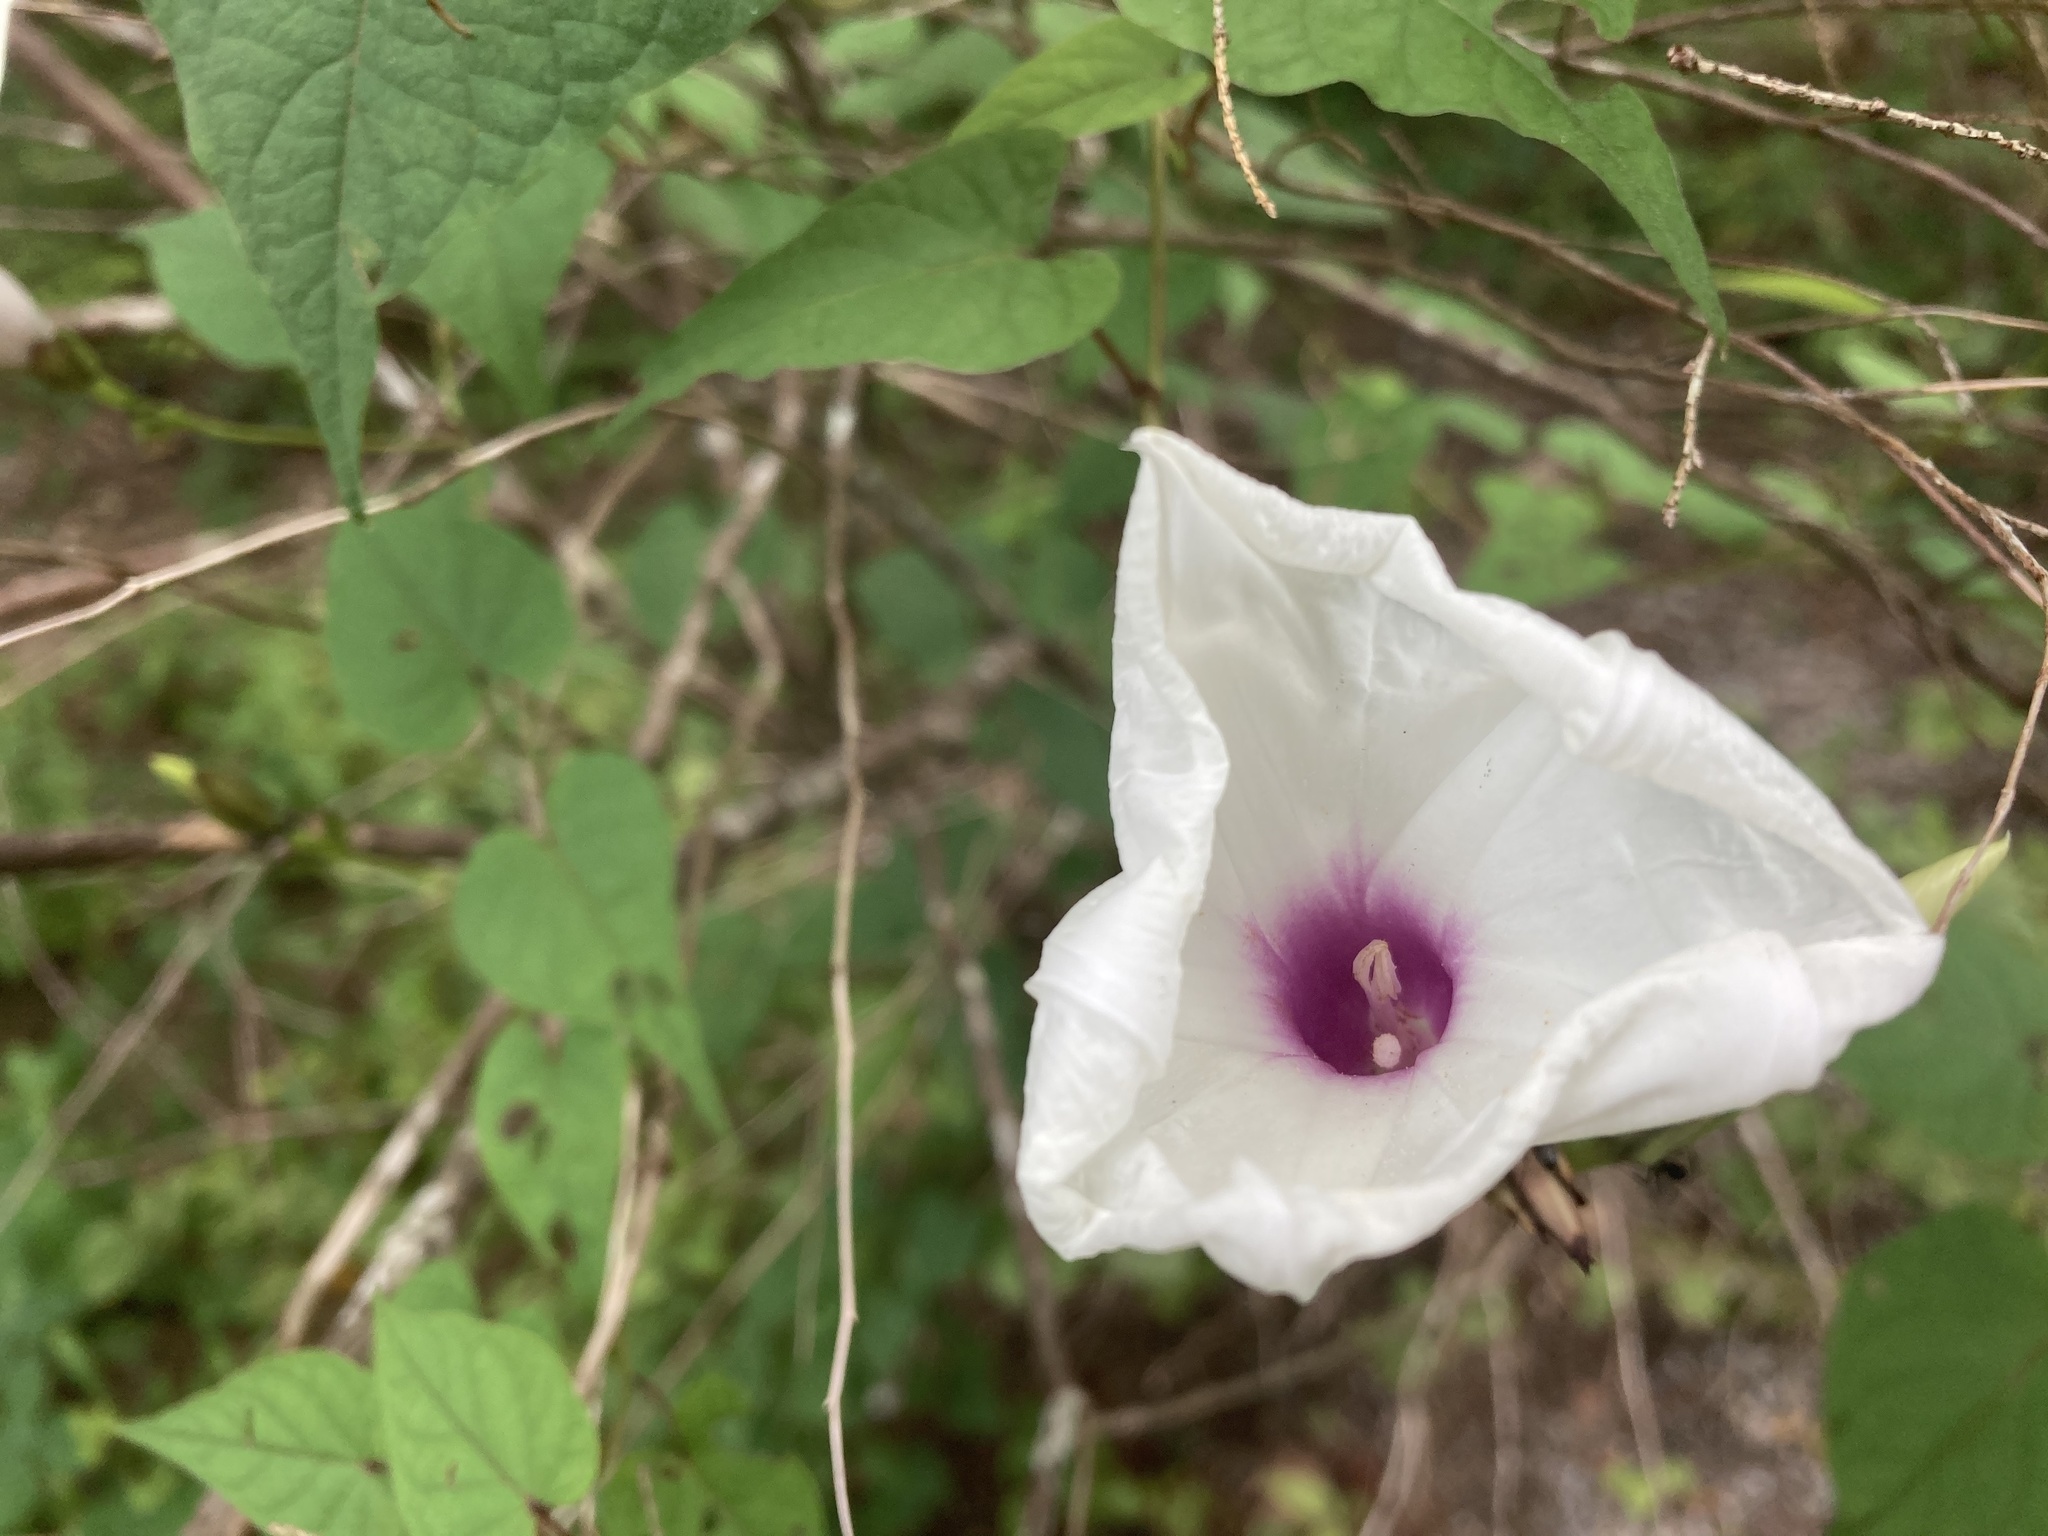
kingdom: Plantae
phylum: Tracheophyta
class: Magnoliopsida
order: Solanales
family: Convolvulaceae
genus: Ipomoea
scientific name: Ipomoea pandurata
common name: Man-of-the-earth
